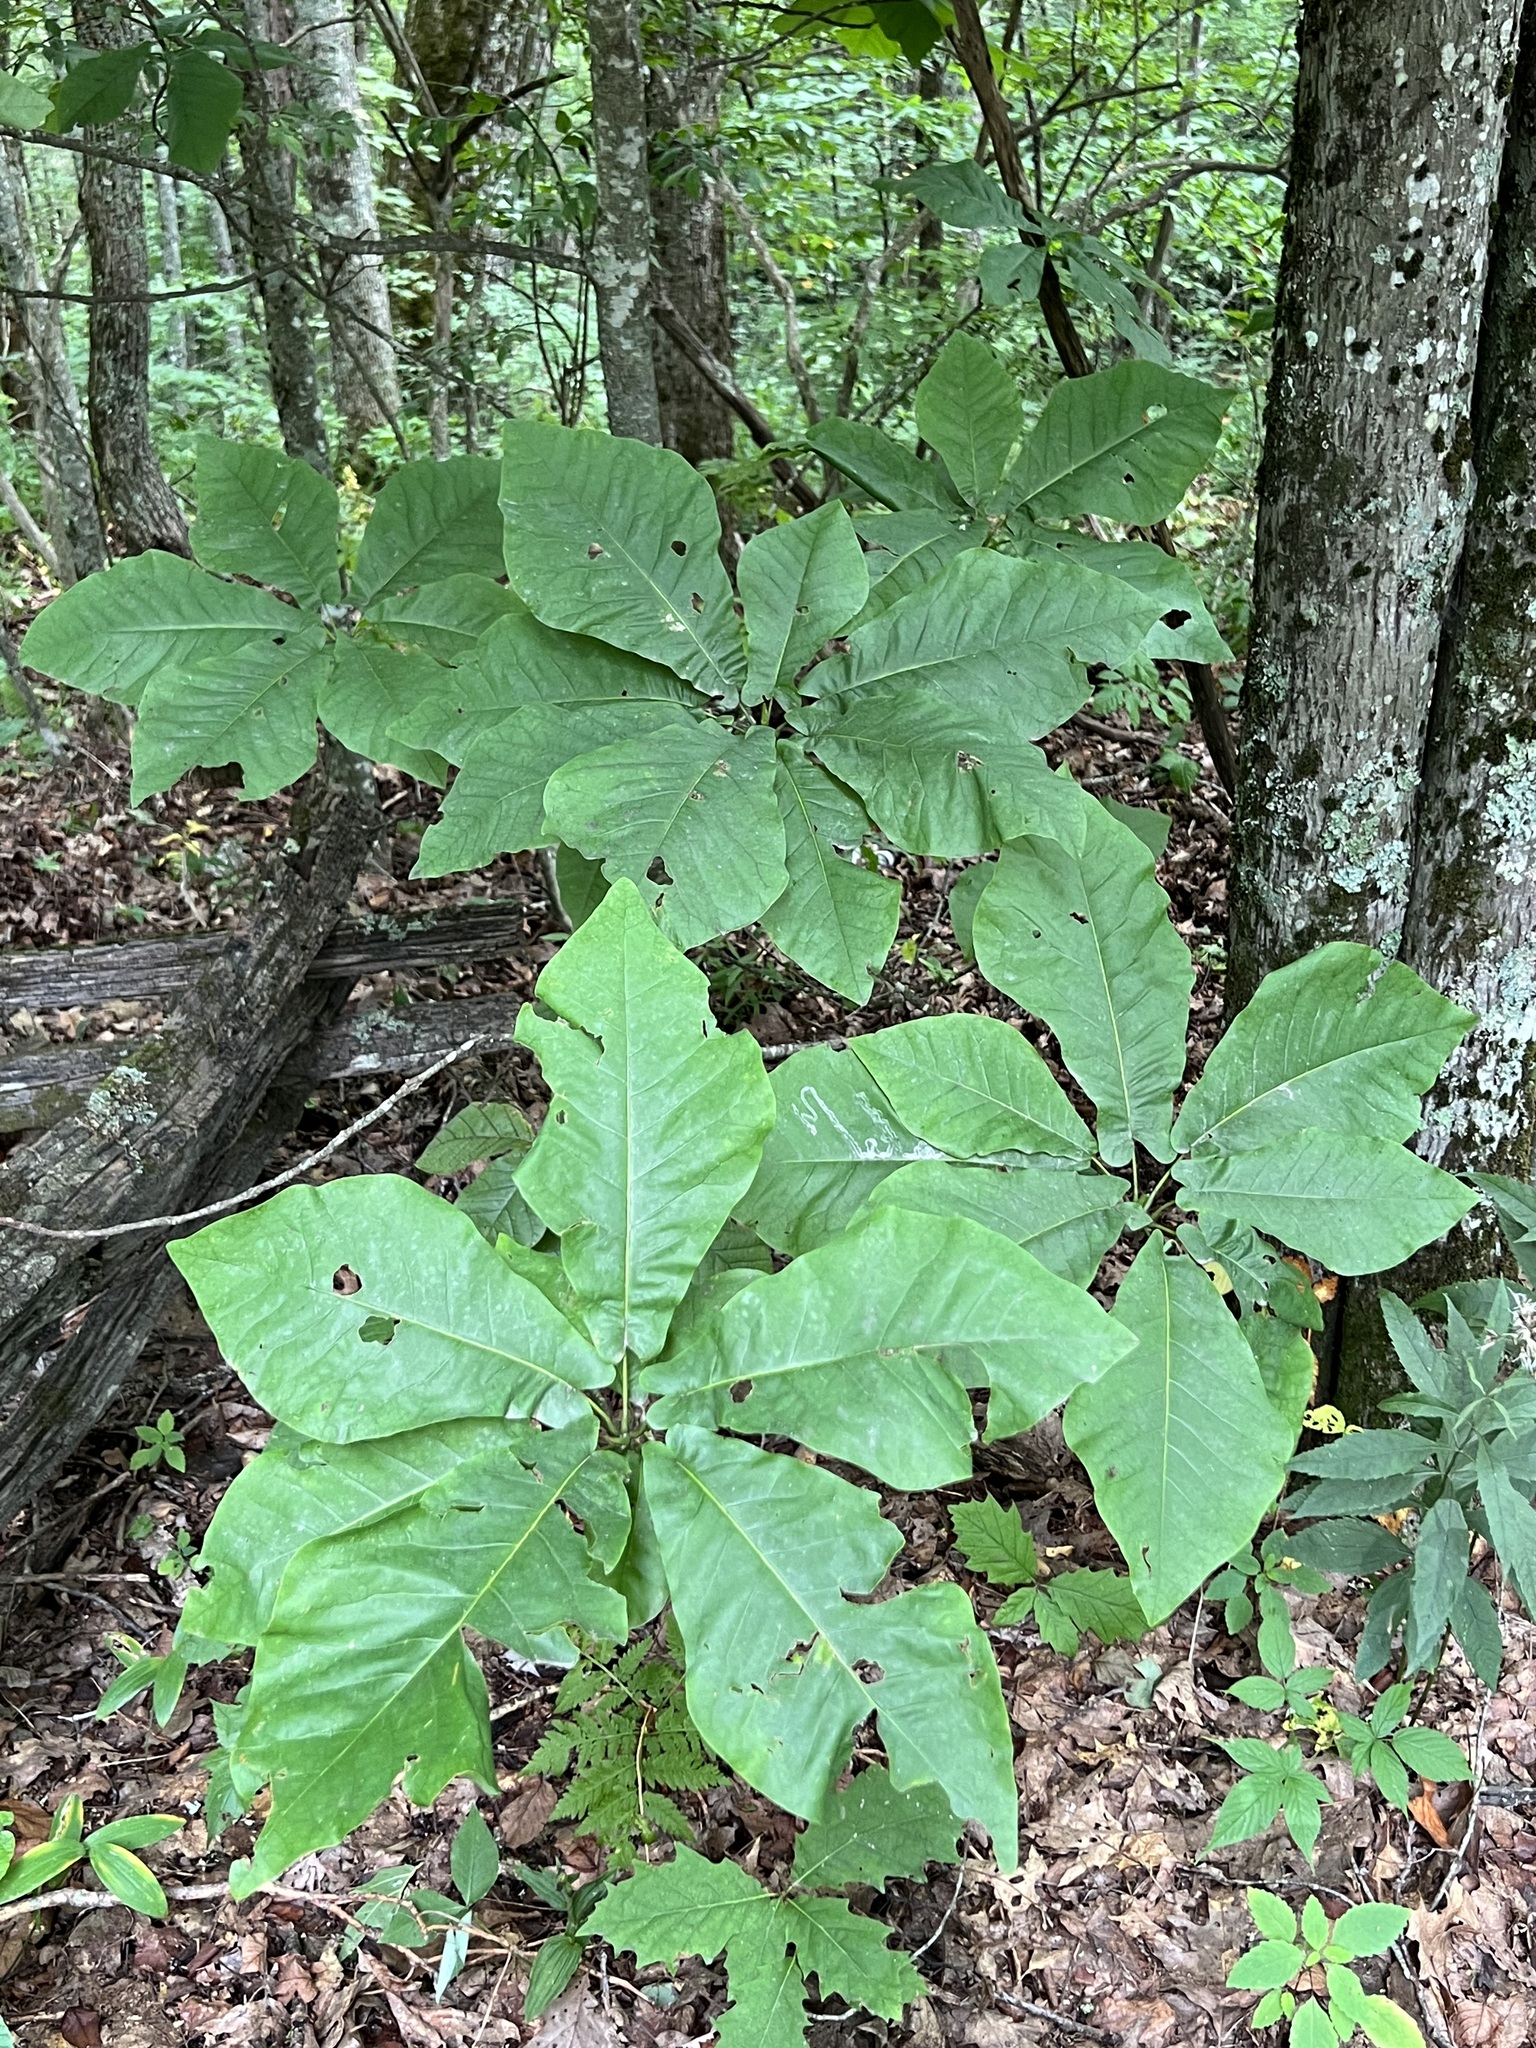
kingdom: Plantae
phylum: Tracheophyta
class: Magnoliopsida
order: Magnoliales
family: Magnoliaceae
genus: Magnolia
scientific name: Magnolia fraseri
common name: Fraser's magnolia
